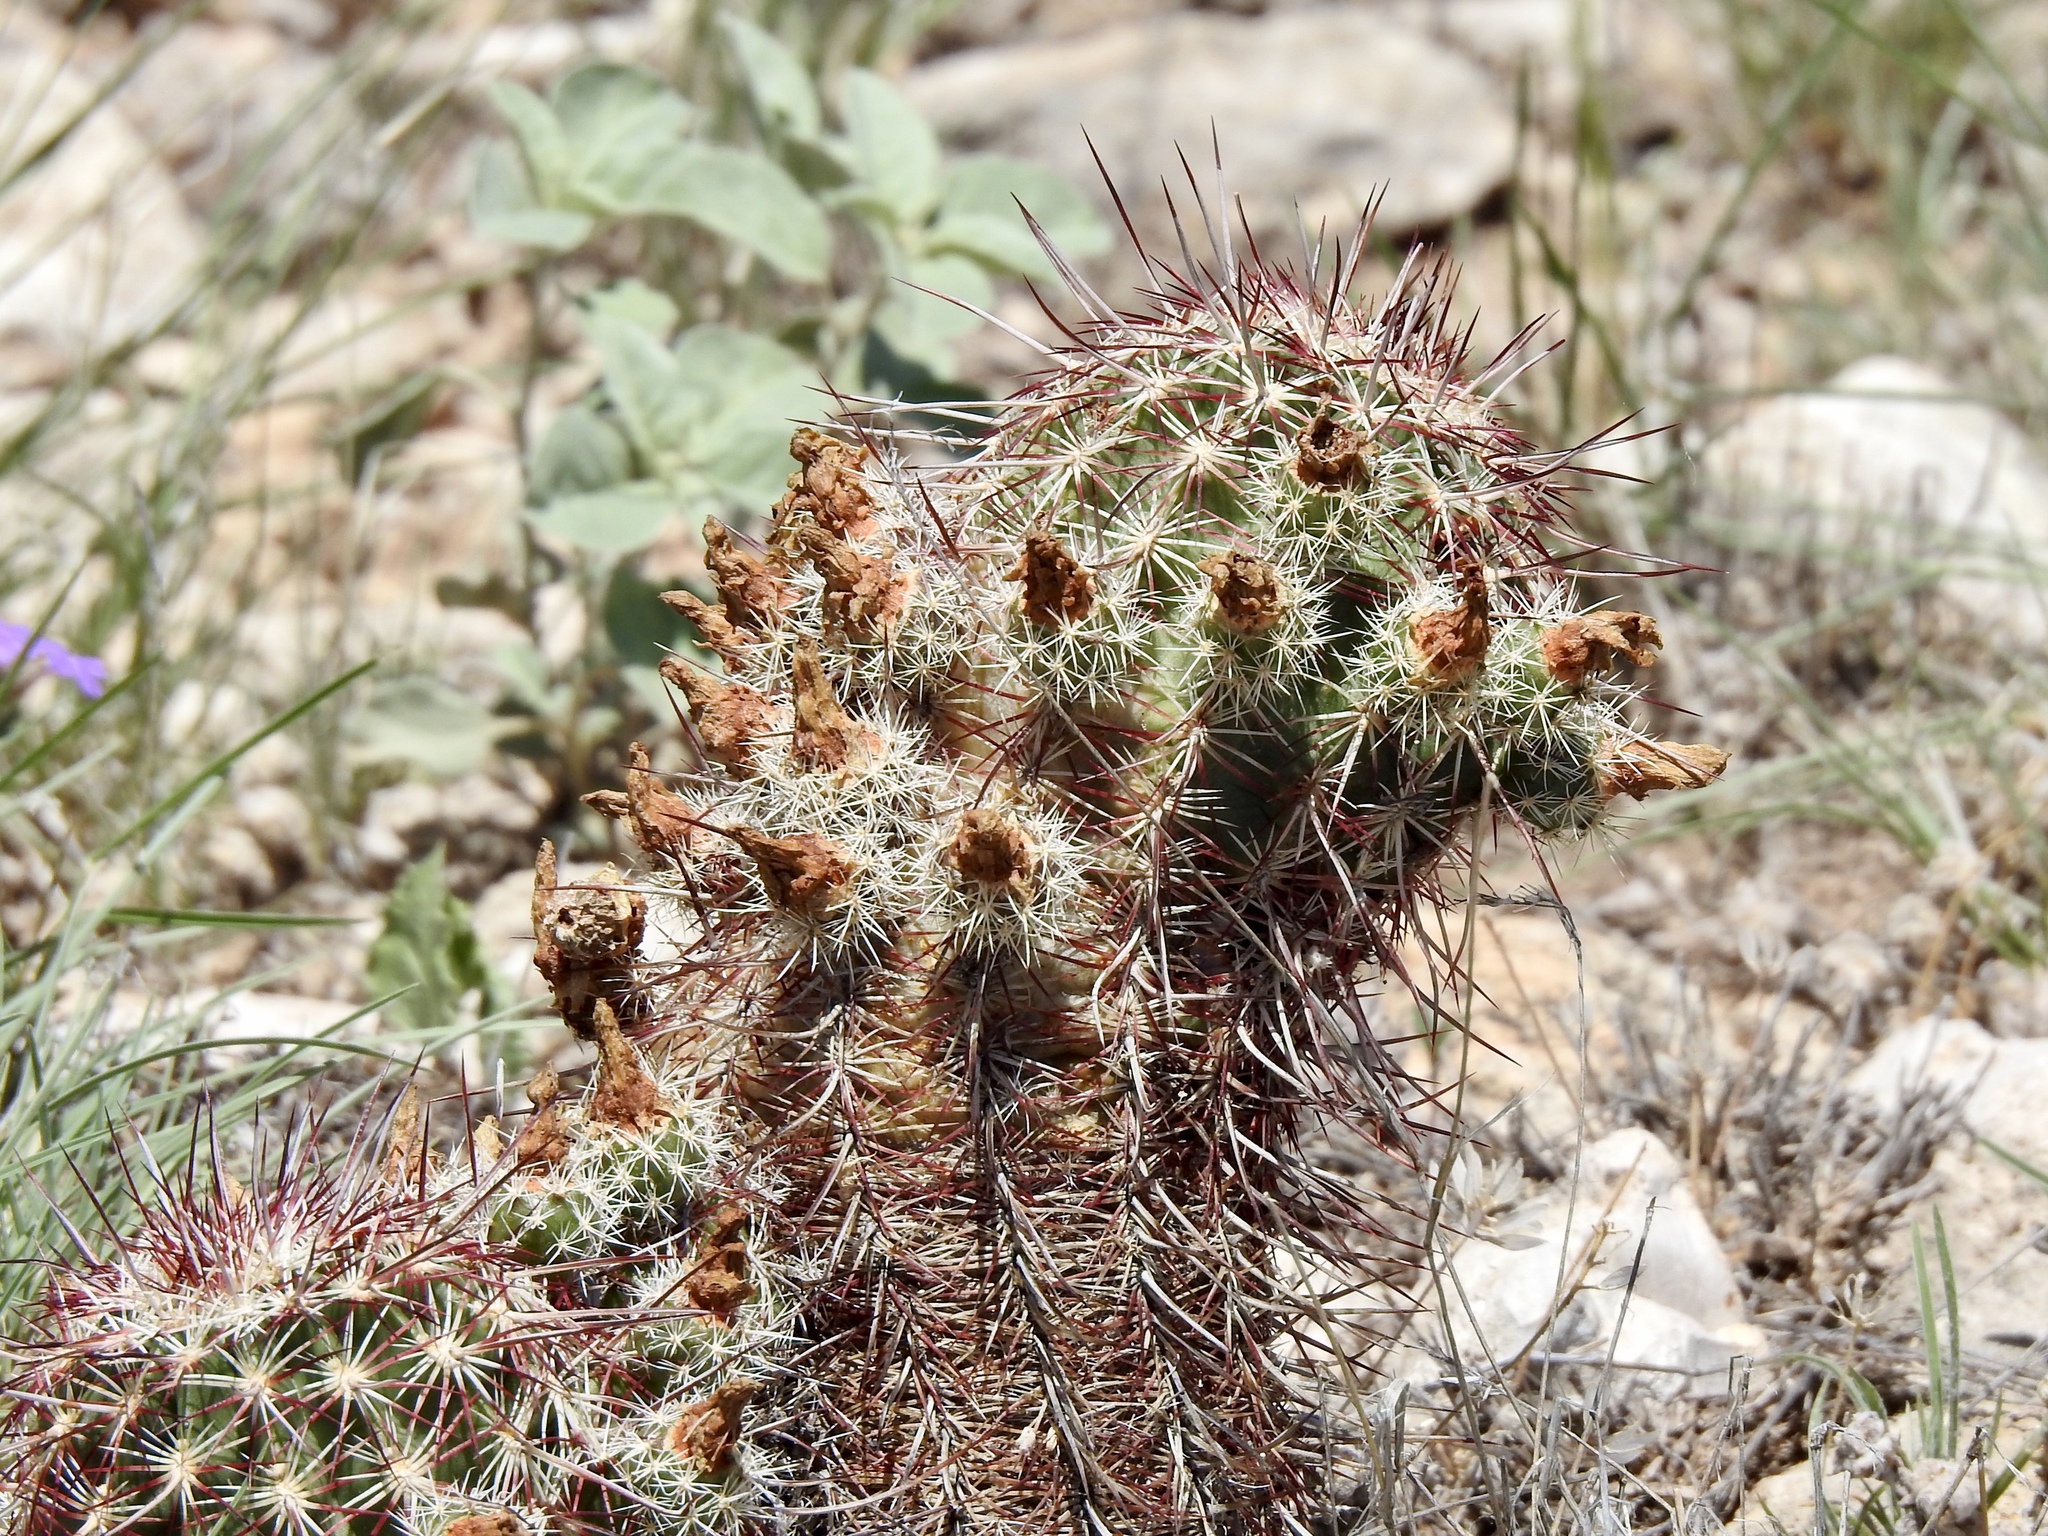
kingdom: Plantae
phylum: Tracheophyta
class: Magnoliopsida
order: Caryophyllales
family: Cactaceae
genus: Echinocereus
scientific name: Echinocereus viridiflorus
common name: Nylon hedgehog cactus
